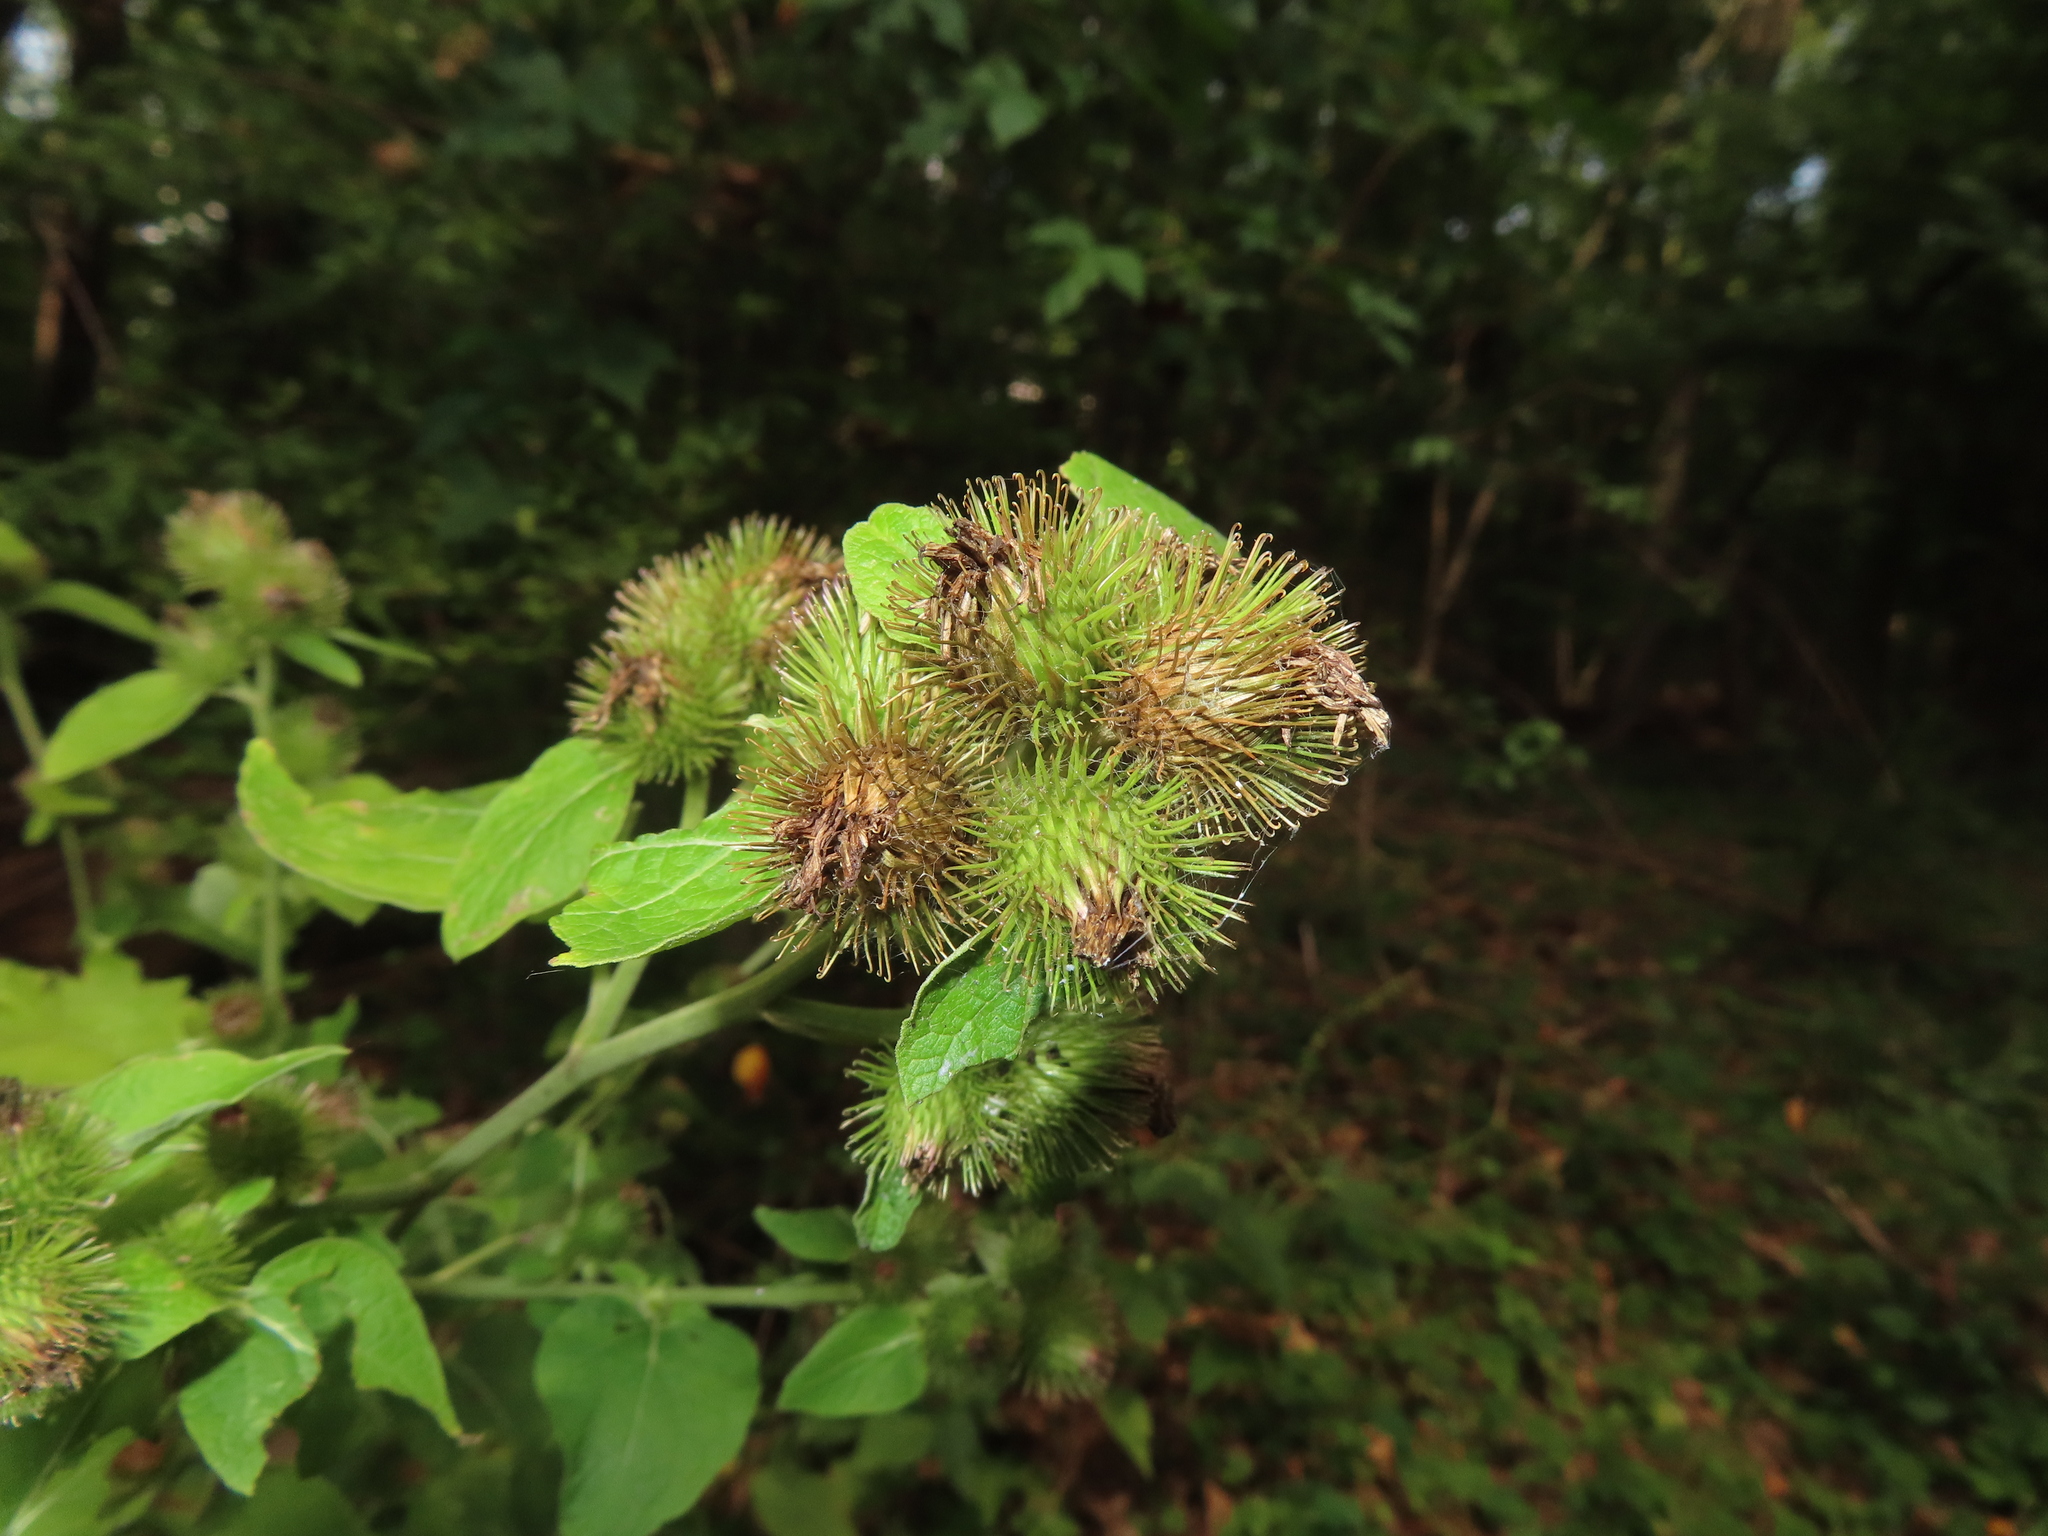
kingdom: Plantae
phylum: Tracheophyta
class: Magnoliopsida
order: Asterales
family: Asteraceae
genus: Arctium
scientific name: Arctium minus
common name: Lesser burdock
